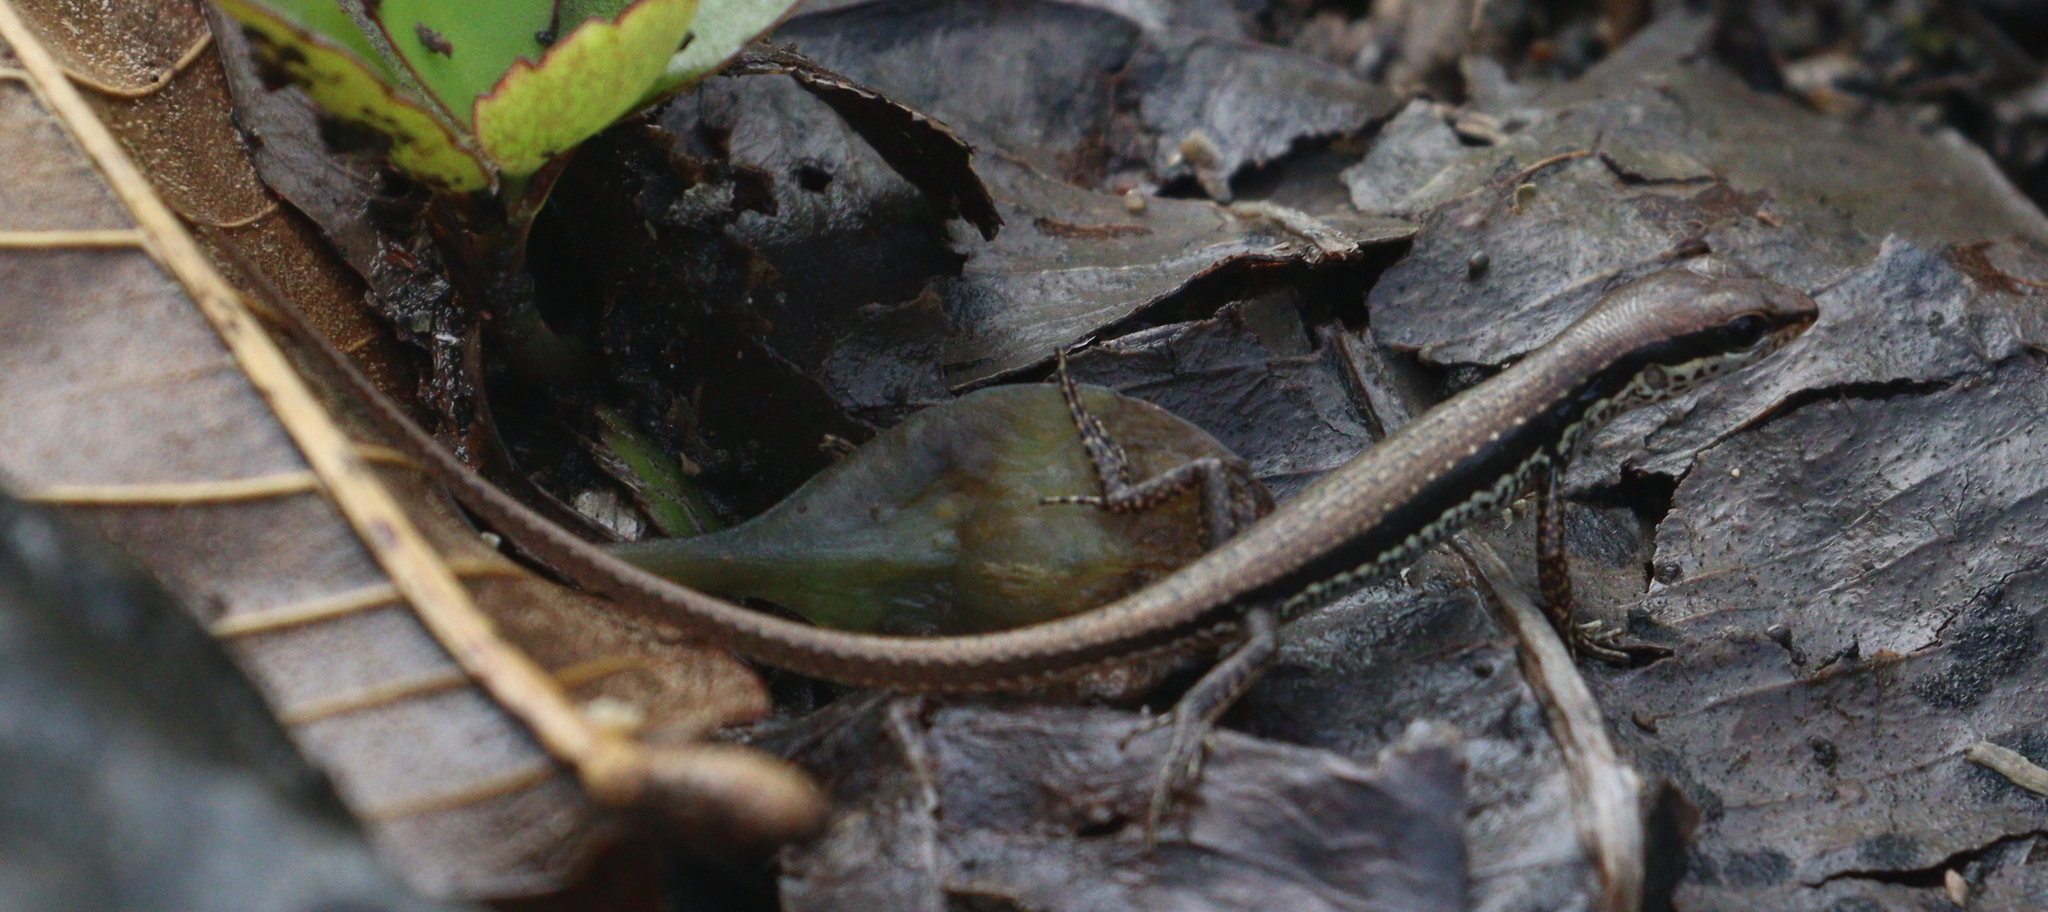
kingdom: Animalia
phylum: Chordata
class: Squamata
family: Scincidae
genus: Sphenomorphus
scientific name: Sphenomorphus maculatus
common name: Maculated forest skink
